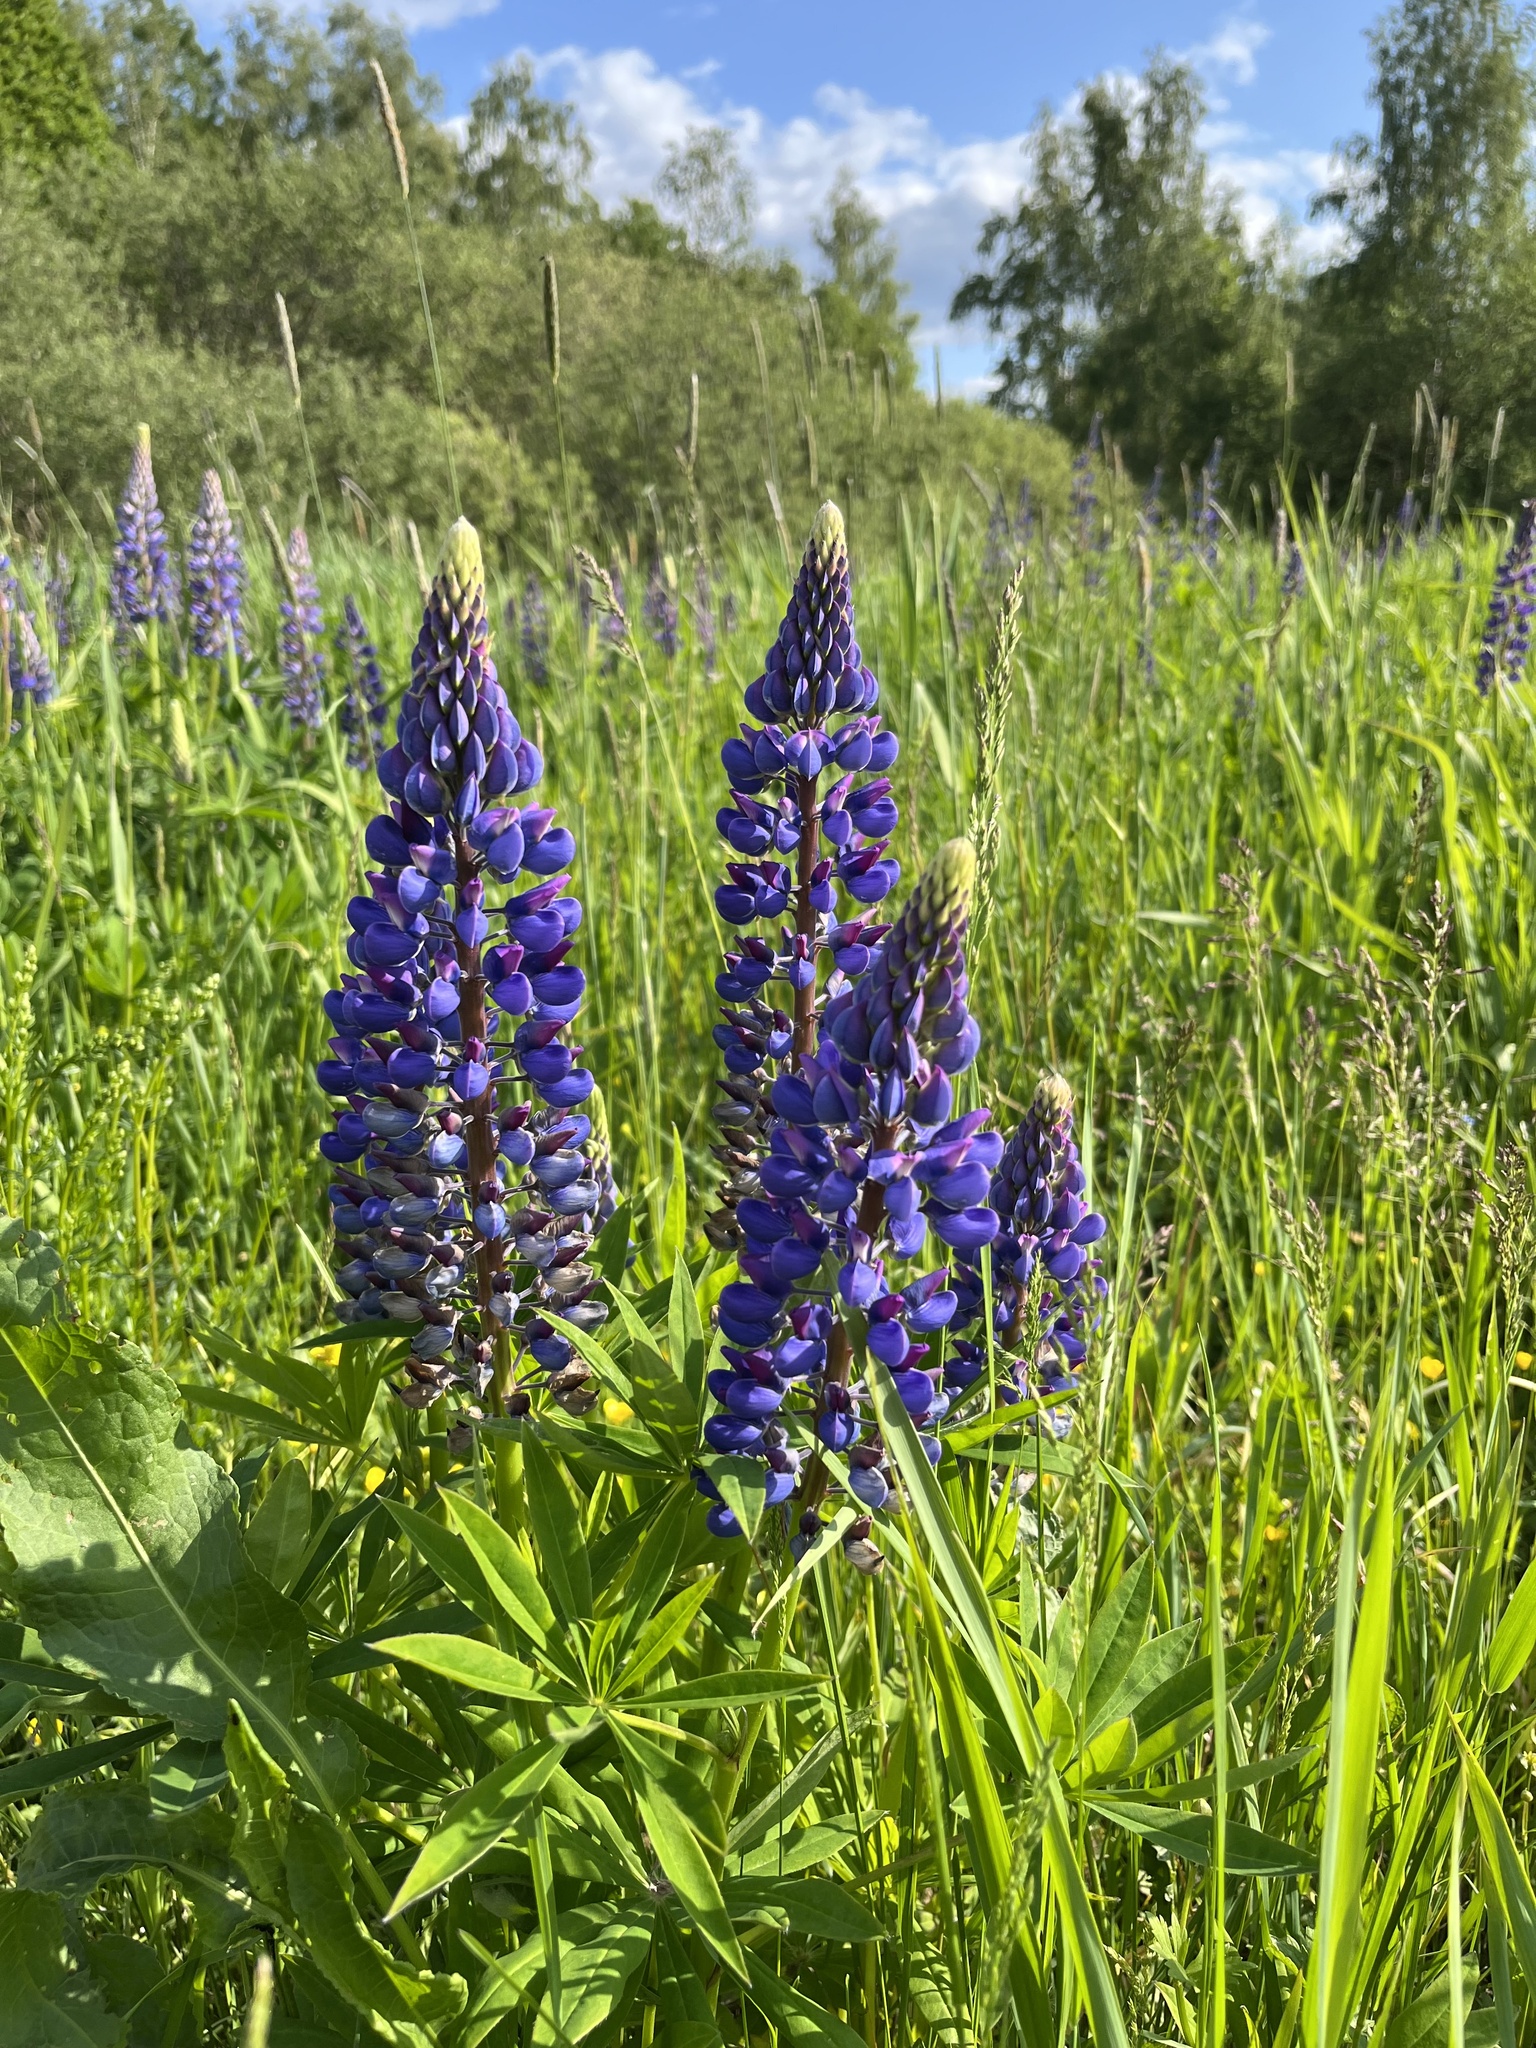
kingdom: Plantae
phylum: Tracheophyta
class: Magnoliopsida
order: Fabales
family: Fabaceae
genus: Lupinus
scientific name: Lupinus polyphyllus
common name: Garden lupin
